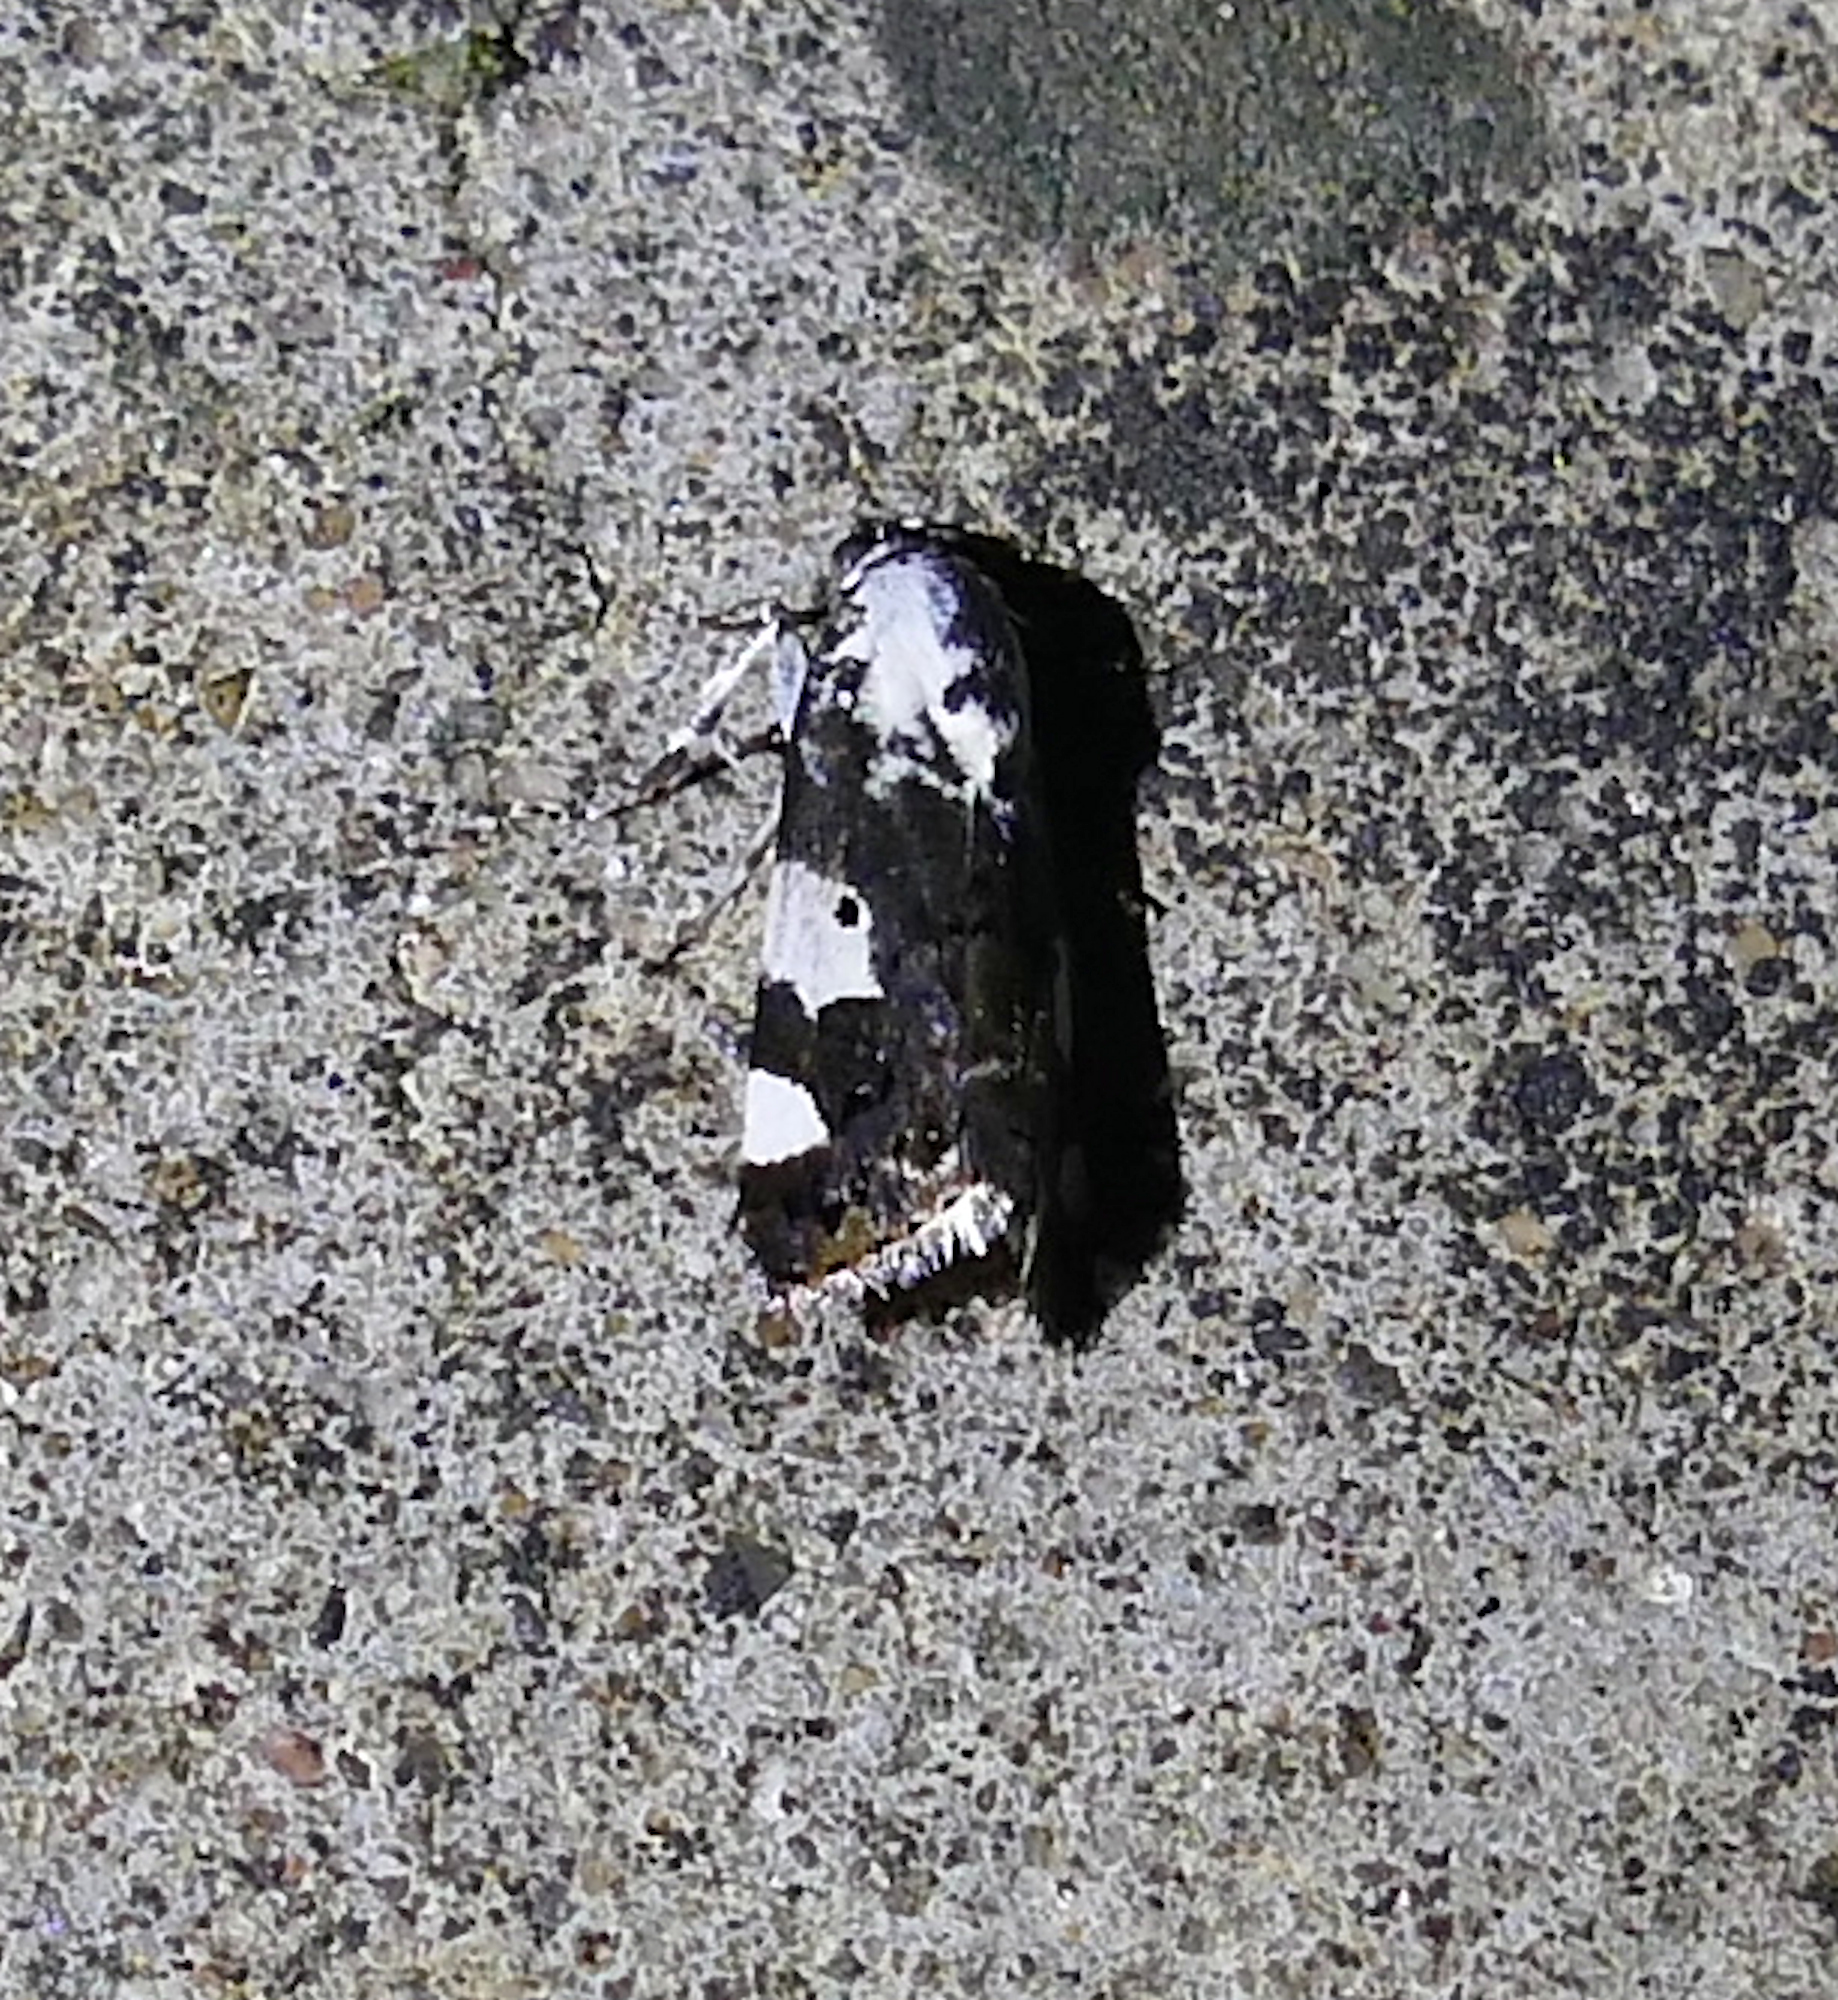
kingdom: Animalia
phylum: Arthropoda
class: Insecta
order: Lepidoptera
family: Noctuidae
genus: Acontia
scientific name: Acontia aprica
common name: Nun
